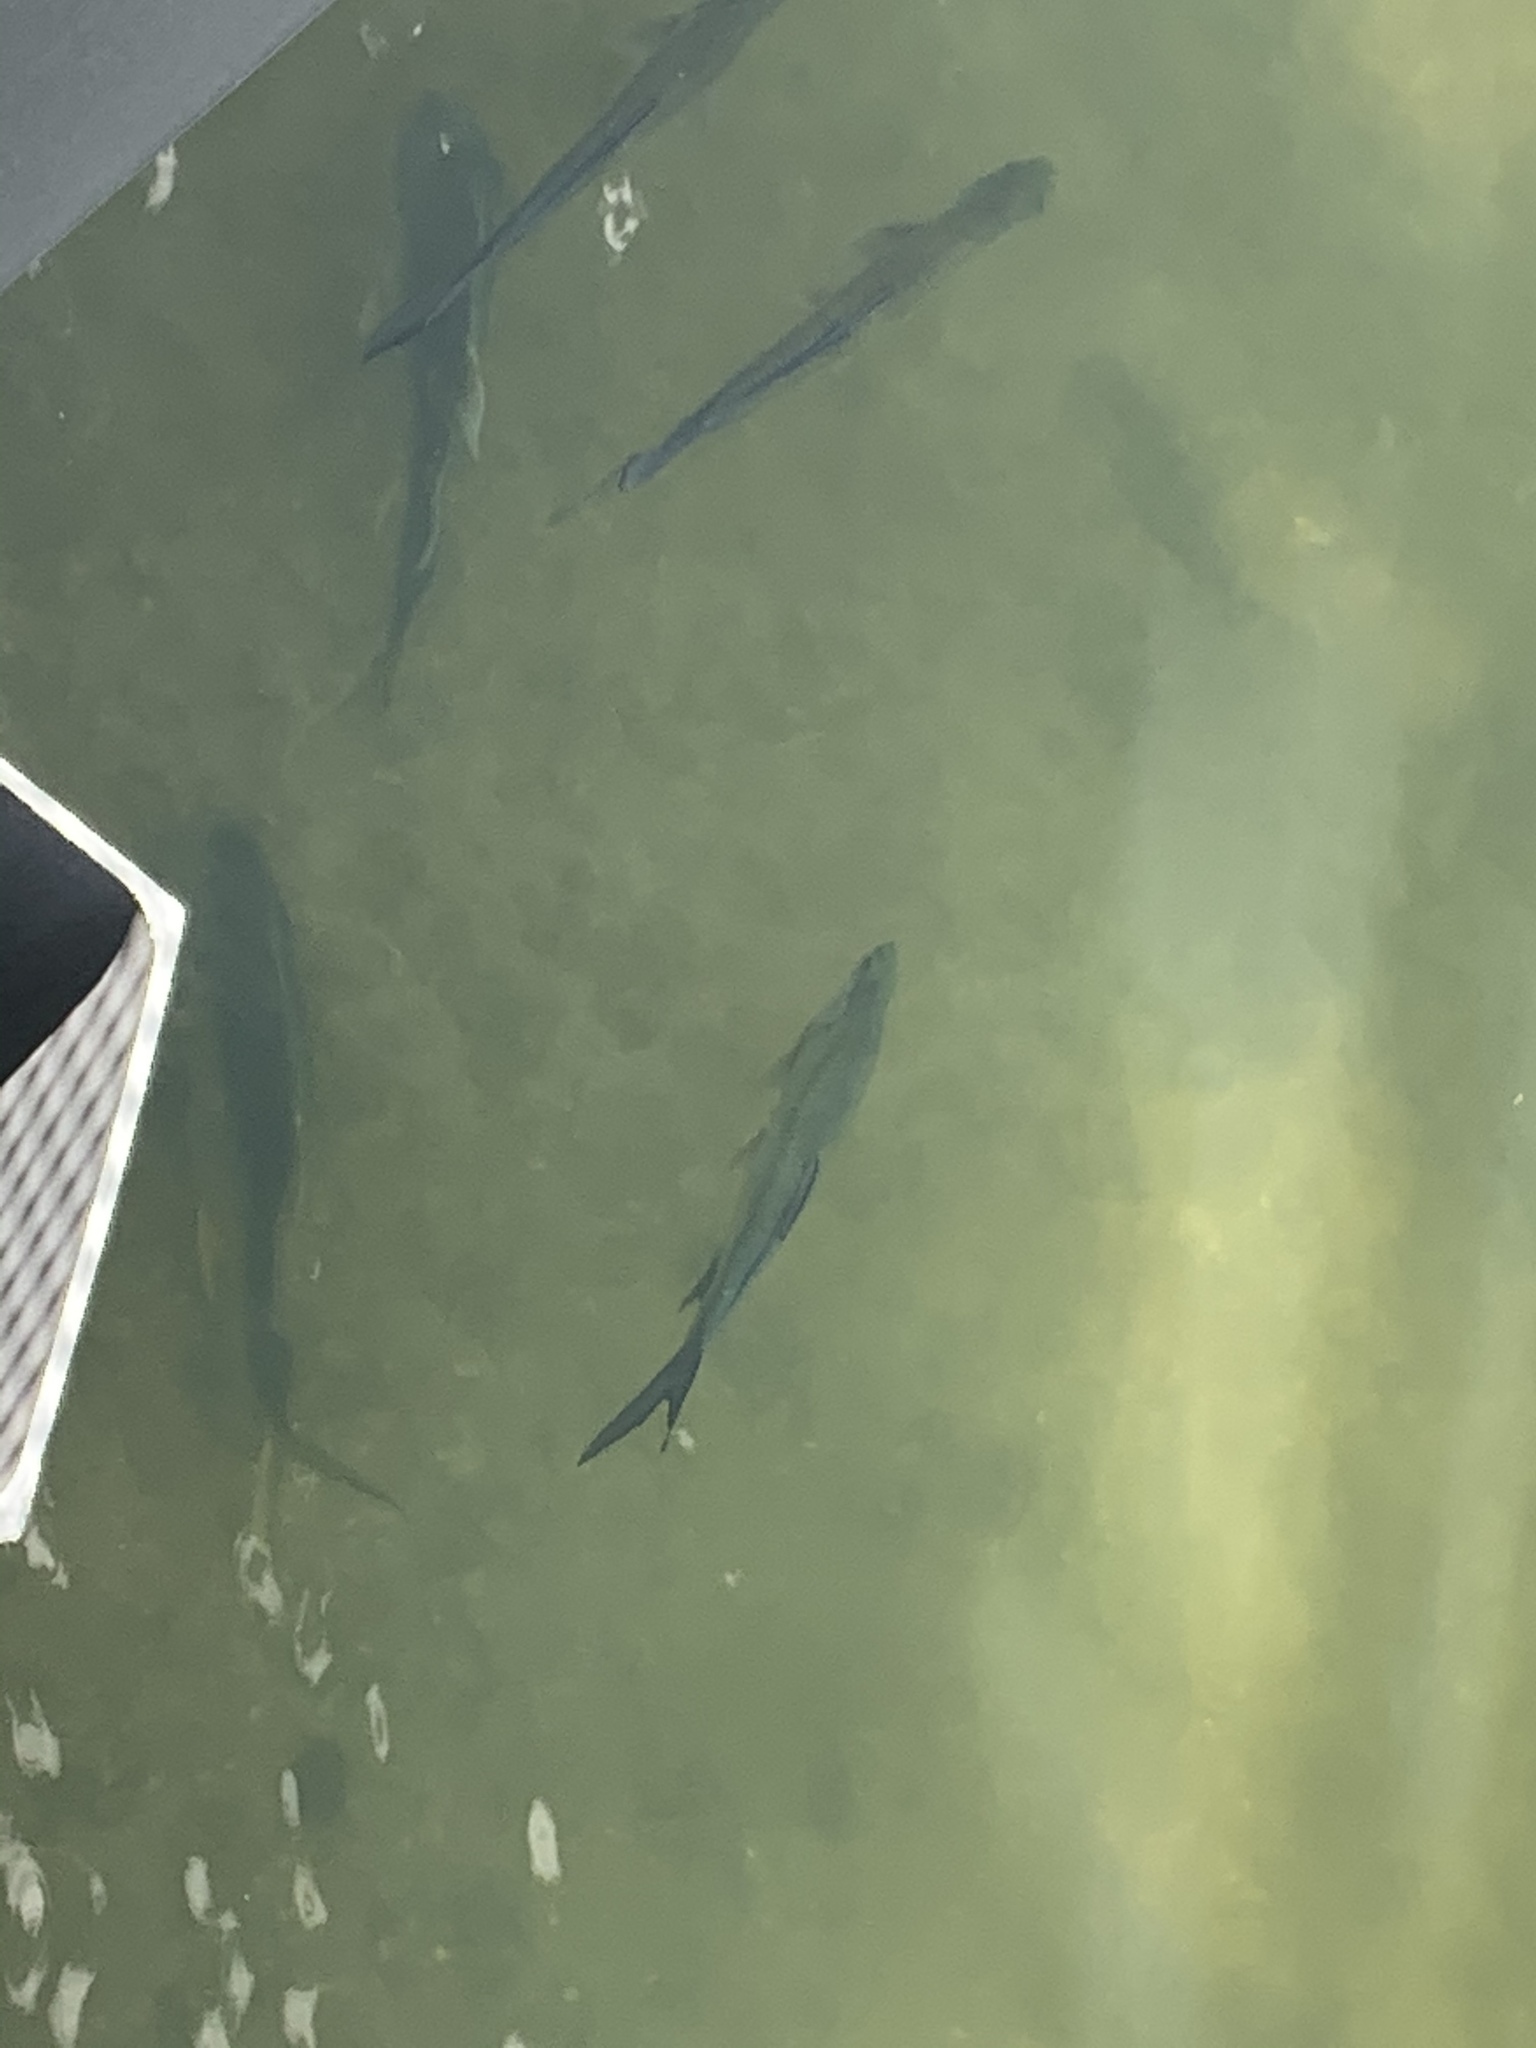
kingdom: Animalia
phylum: Chordata
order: Elopiformes
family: Megalopidae
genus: Megalops
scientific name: Megalops atlanticus
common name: Tarpon
